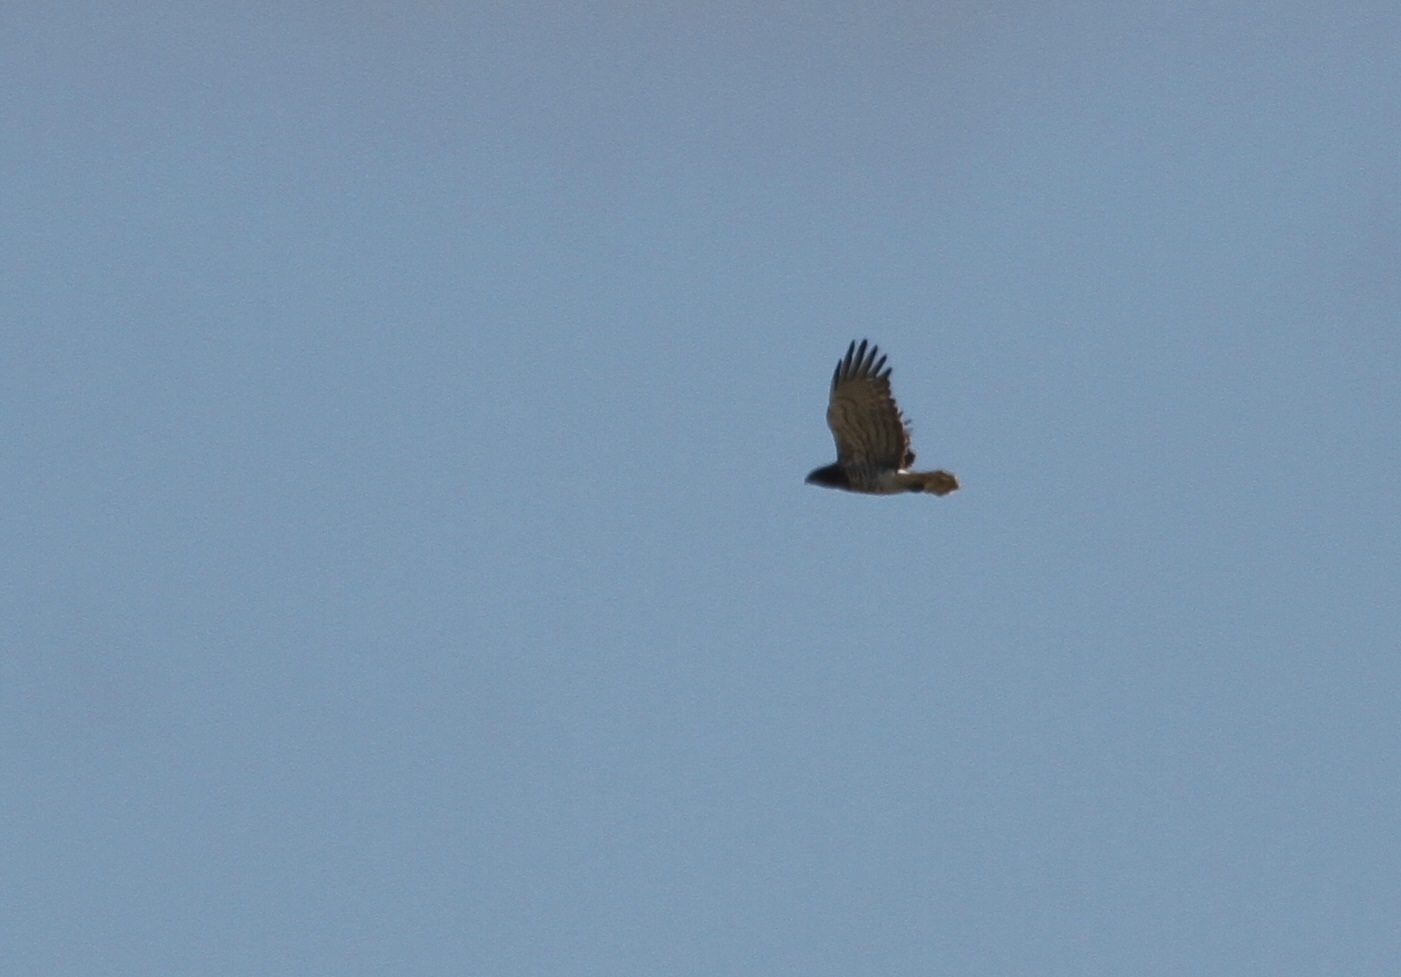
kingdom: Animalia
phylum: Chordata
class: Aves
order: Accipitriformes
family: Accipitridae
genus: Circaetus
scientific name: Circaetus gallicus
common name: Short-toed snake eagle
